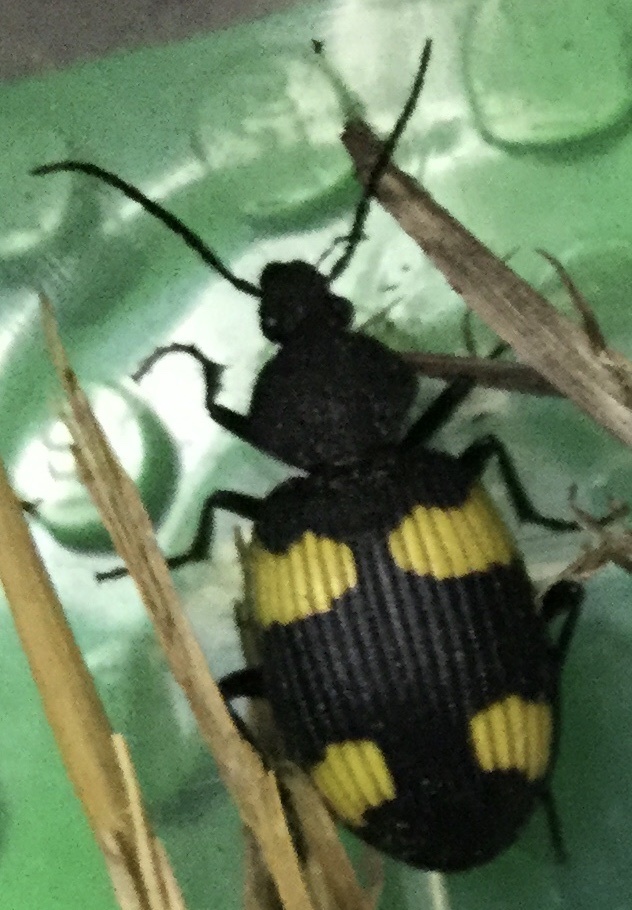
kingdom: Animalia
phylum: Arthropoda
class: Insecta
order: Coleoptera
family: Carabidae
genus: Craspedophorus
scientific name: Craspedophorus mandarinus
